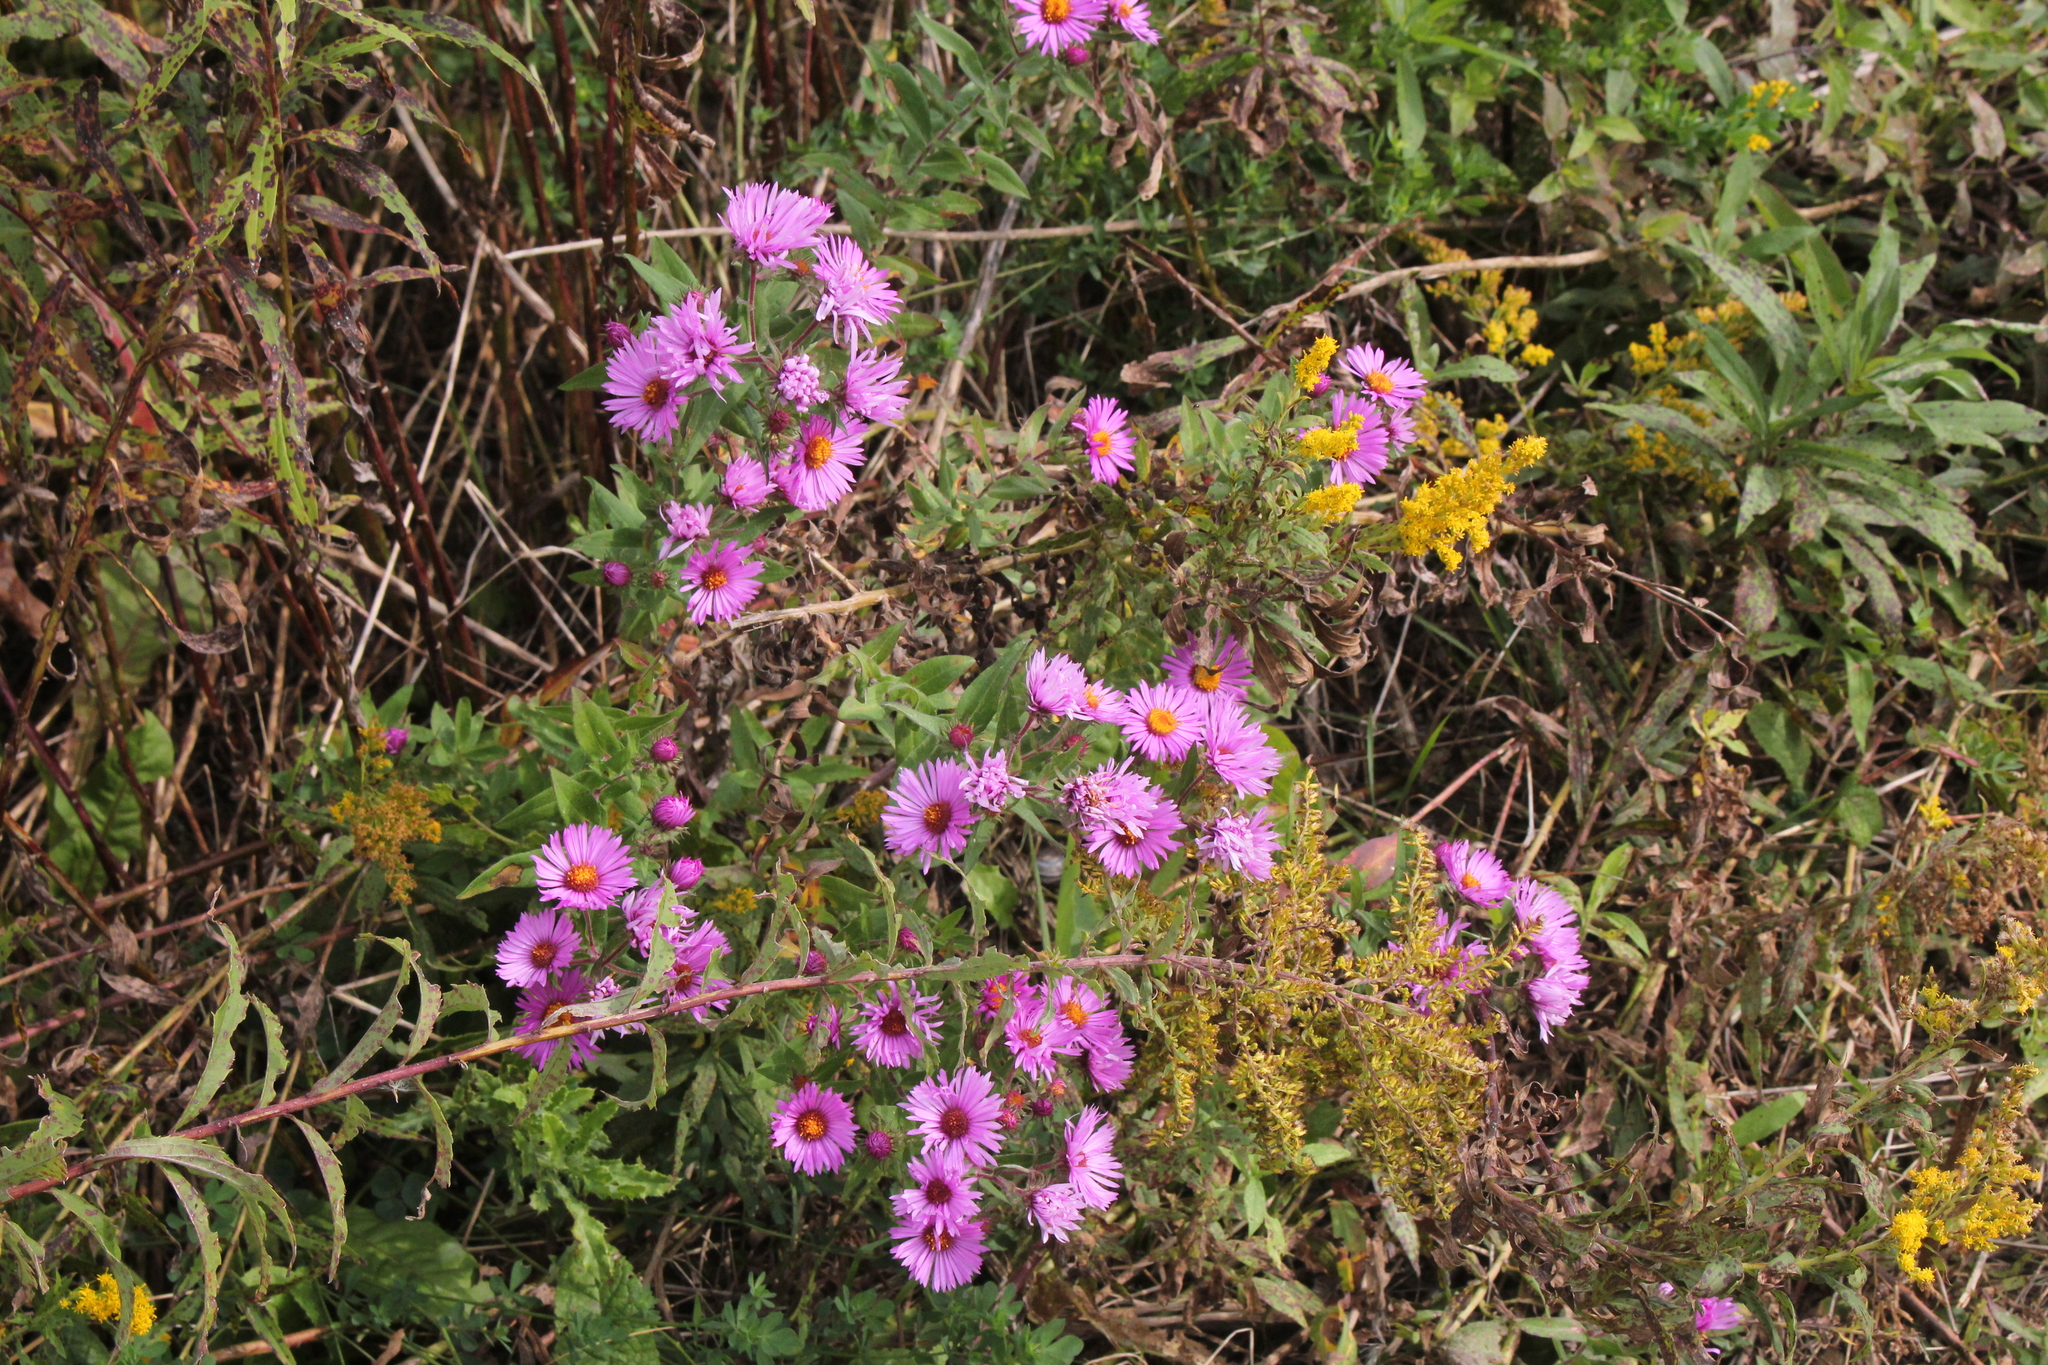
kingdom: Plantae
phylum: Tracheophyta
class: Magnoliopsida
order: Asterales
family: Asteraceae
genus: Symphyotrichum
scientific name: Symphyotrichum novae-angliae
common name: Michaelmas daisy
